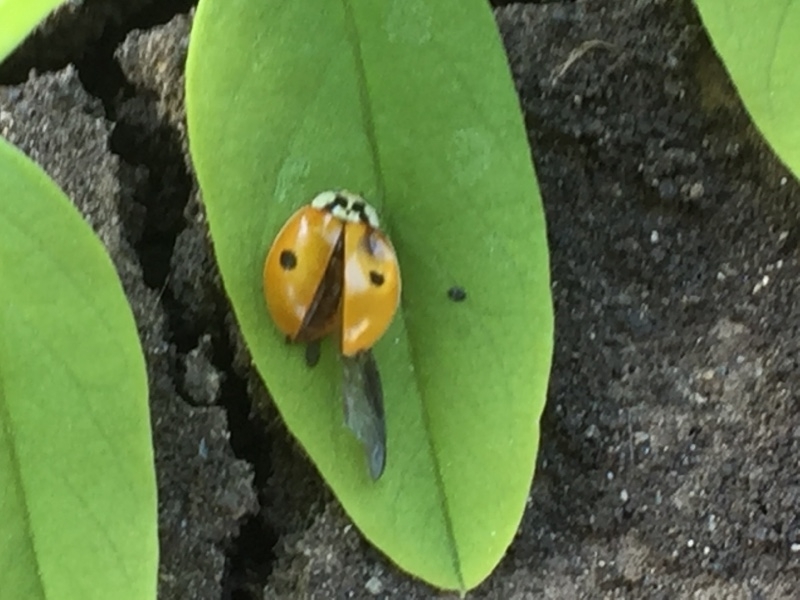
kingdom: Animalia
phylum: Arthropoda
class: Insecta
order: Coleoptera
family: Coccinellidae
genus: Adalia
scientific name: Adalia bipunctata
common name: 2-spot ladybird
